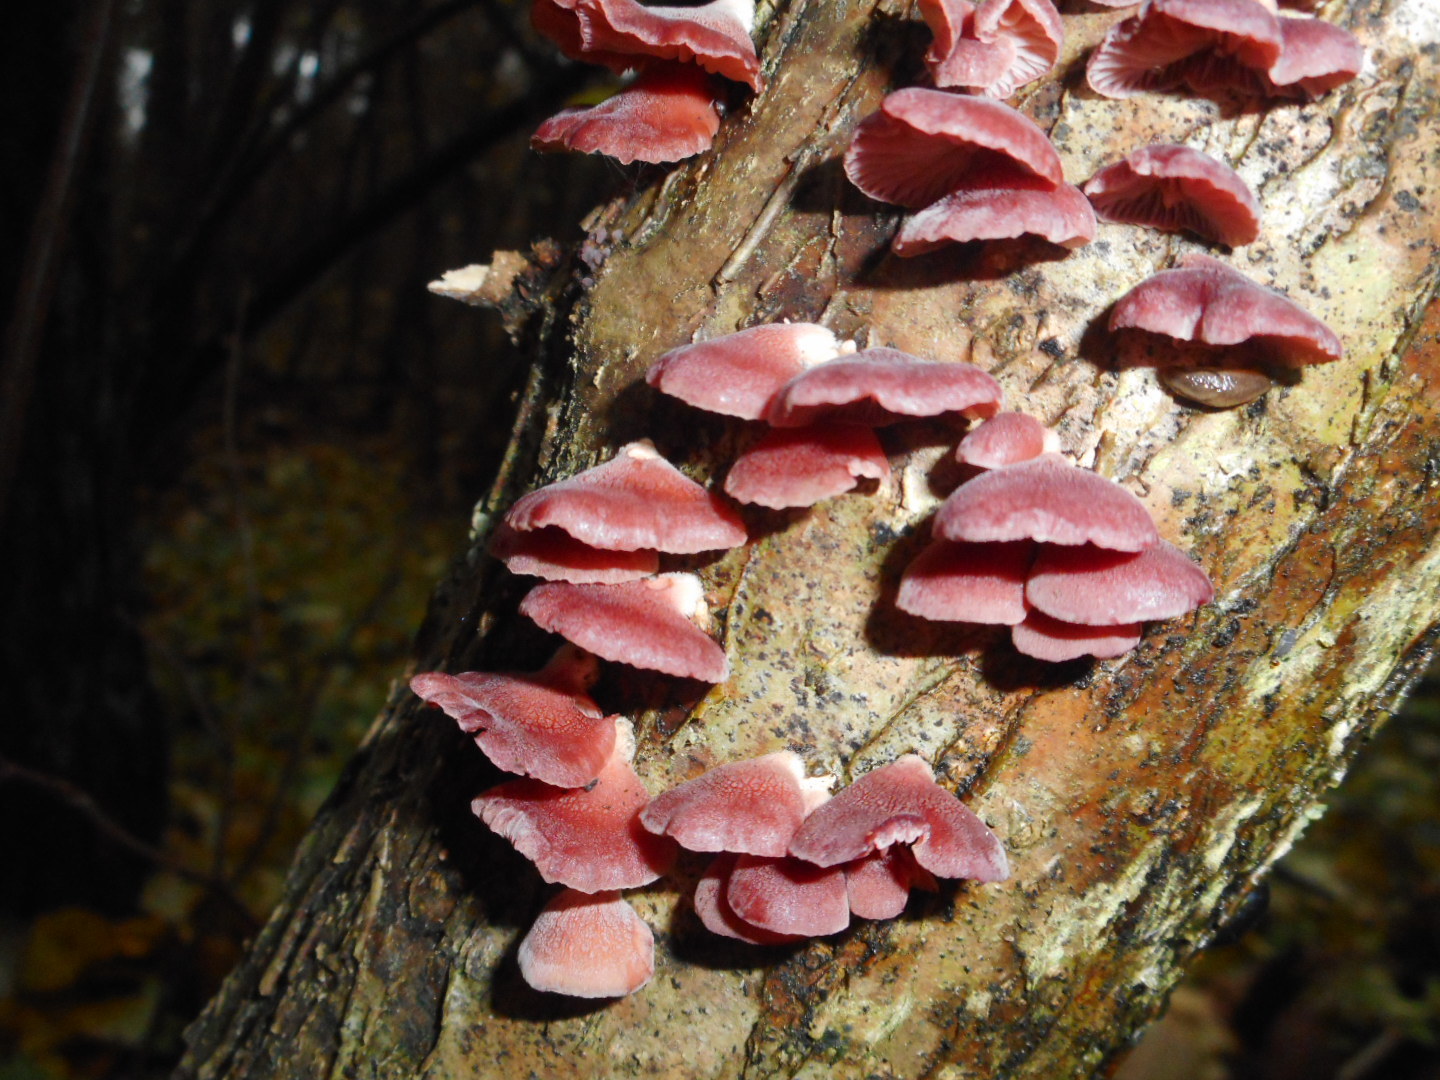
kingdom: Fungi
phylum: Basidiomycota
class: Agaricomycetes
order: Agaricales
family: Mycenaceae
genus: Panellus
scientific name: Panellus ringens
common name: Winter oysterling
